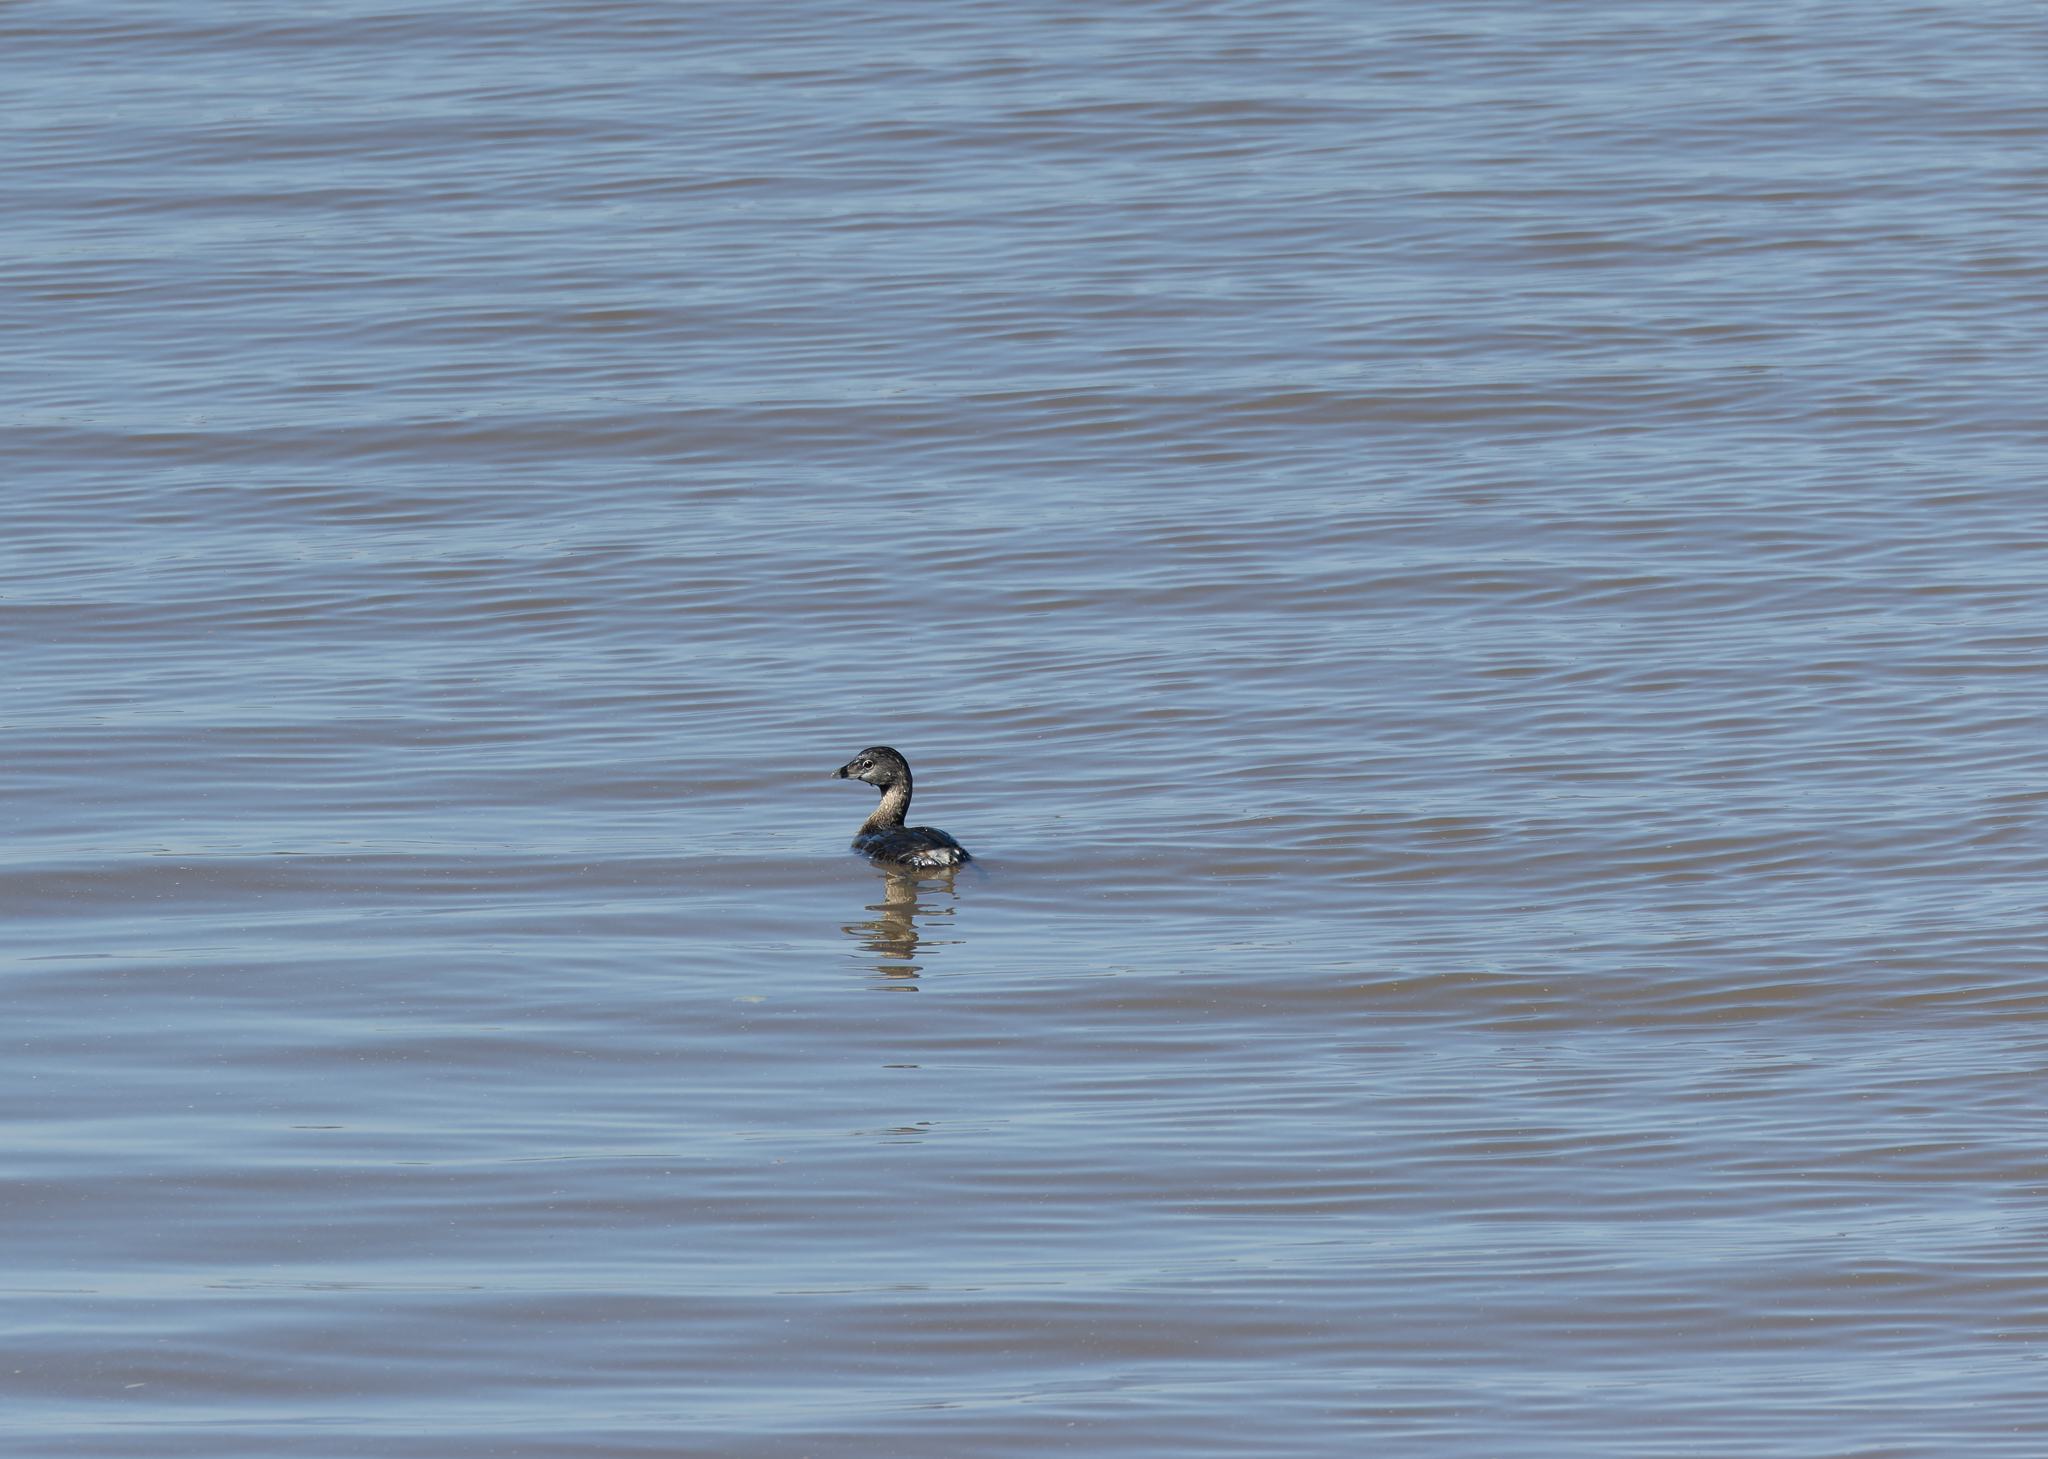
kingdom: Animalia
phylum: Chordata
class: Aves
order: Podicipediformes
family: Podicipedidae
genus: Podilymbus
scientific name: Podilymbus podiceps
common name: Pied-billed grebe
